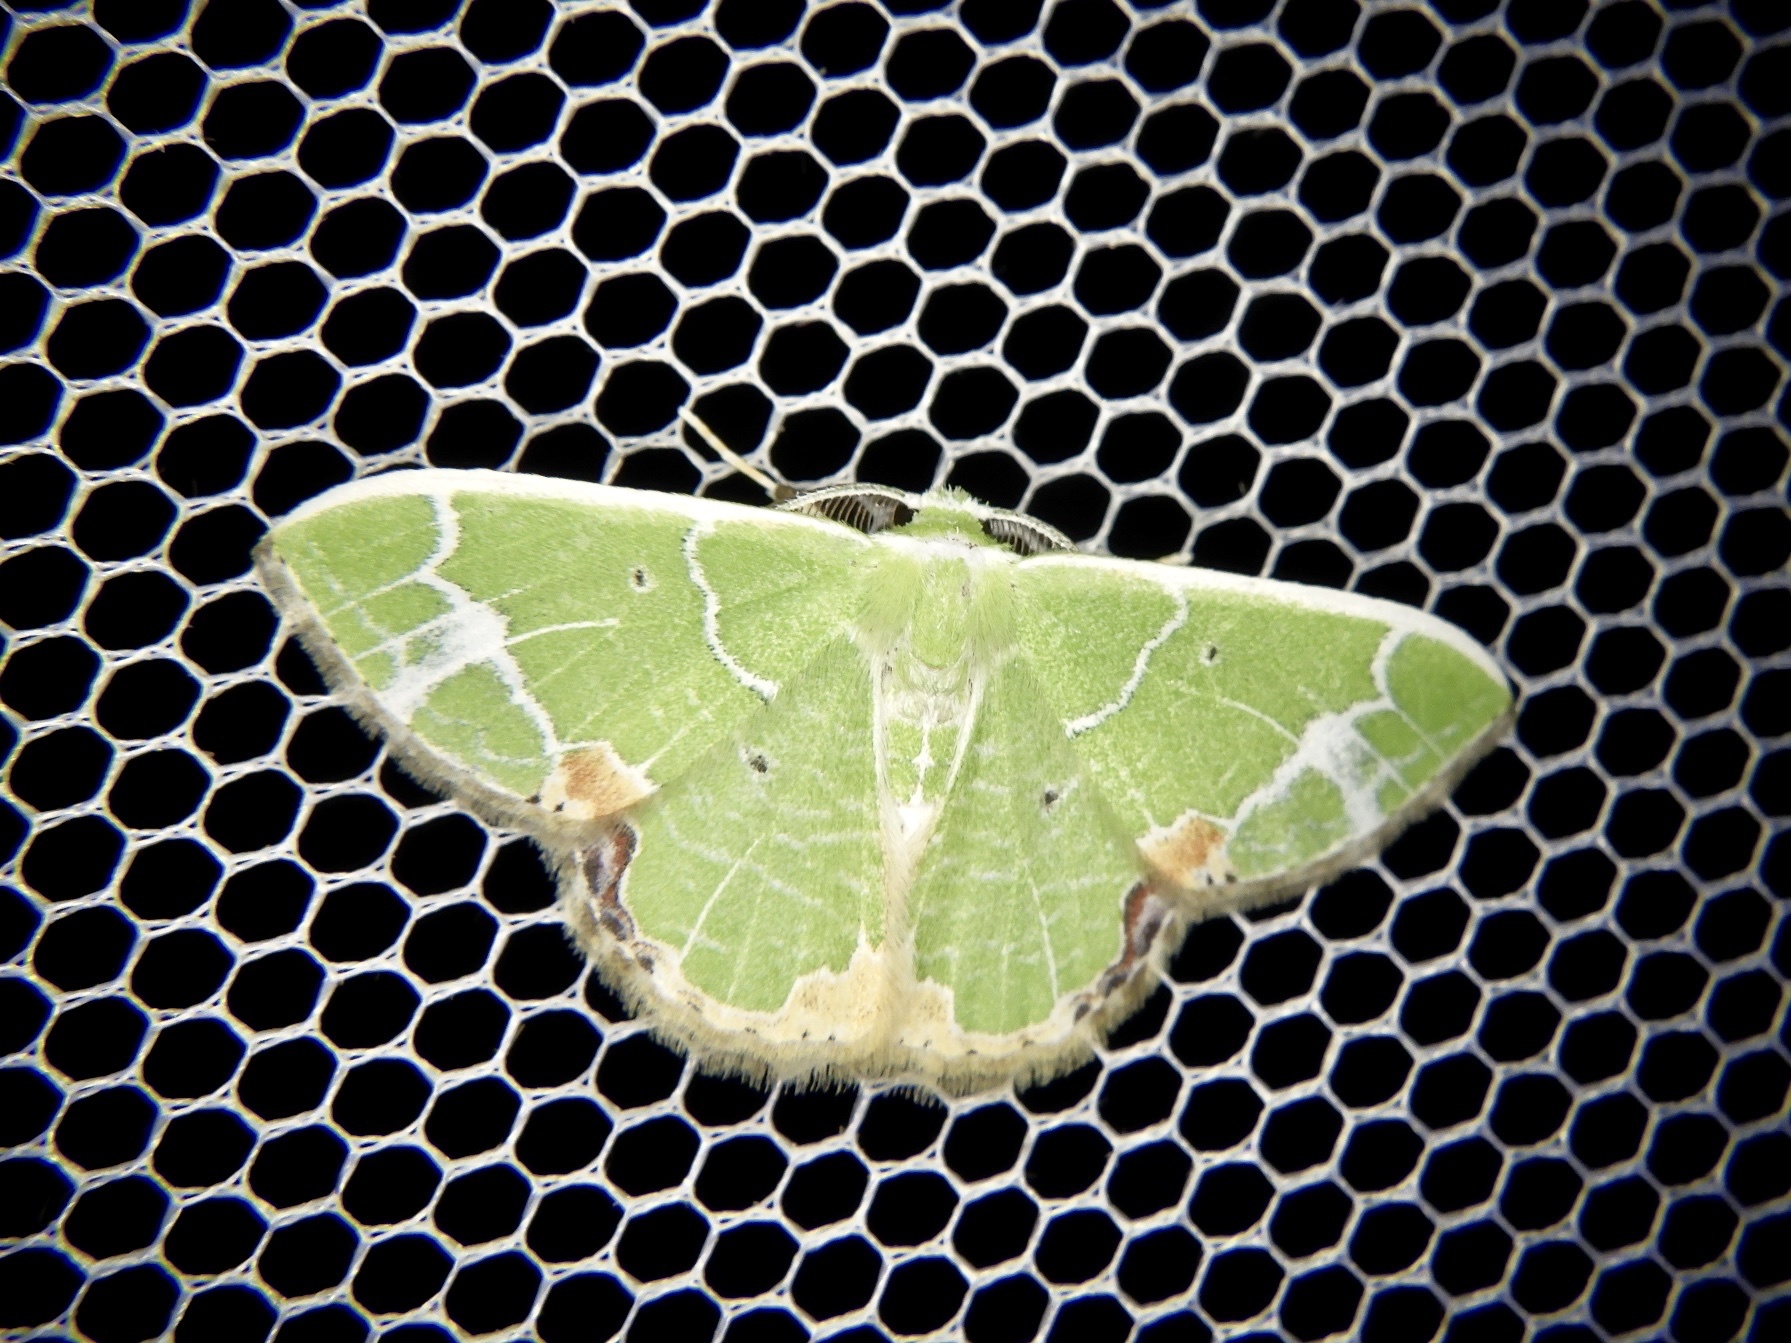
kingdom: Animalia
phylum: Arthropoda
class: Insecta
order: Lepidoptera
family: Geometridae
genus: Comibaena
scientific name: Comibaena nigromacularia
